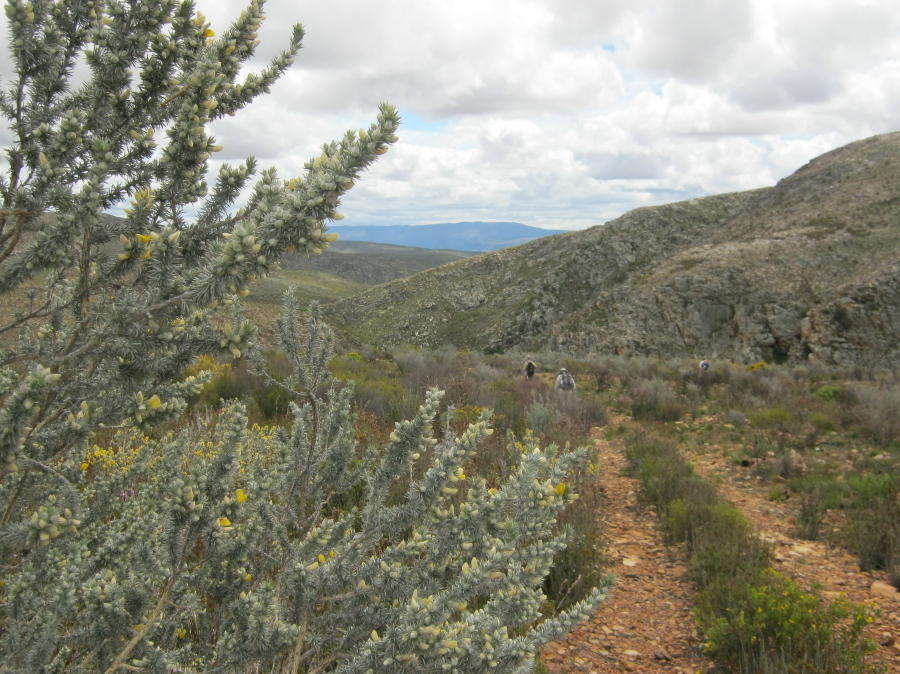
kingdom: Plantae
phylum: Tracheophyta
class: Magnoliopsida
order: Fabales
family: Fabaceae
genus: Aspalathus
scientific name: Aspalathus hystrix
